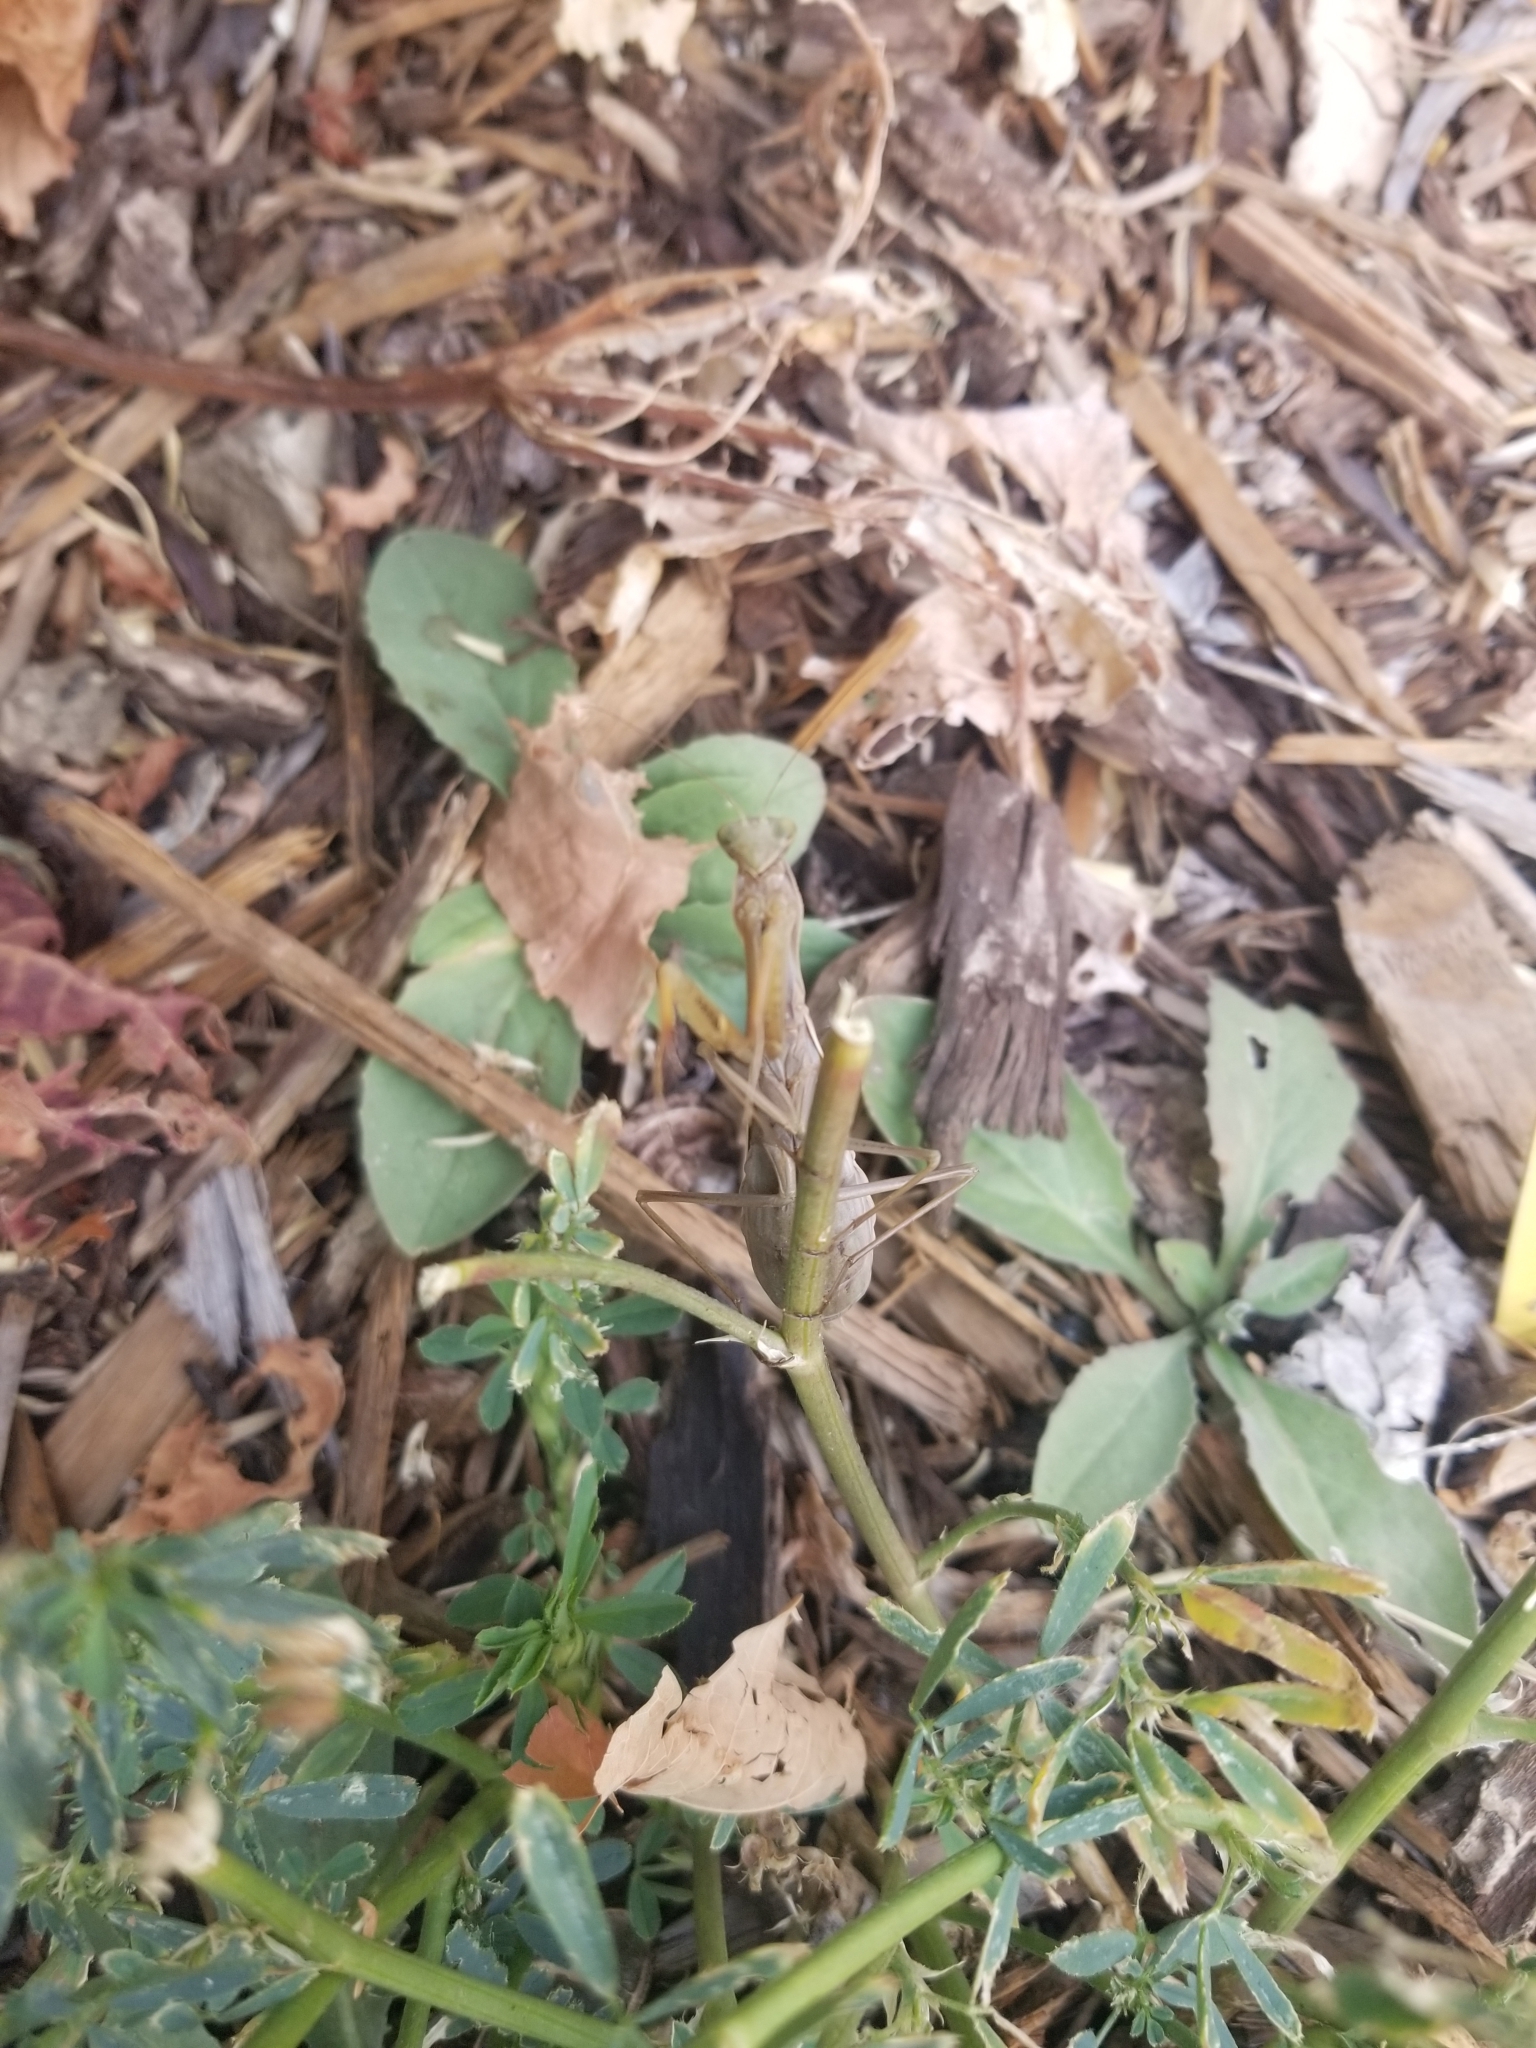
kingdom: Animalia
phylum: Arthropoda
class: Insecta
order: Mantodea
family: Mantidae
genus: Mantis
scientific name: Mantis religiosa
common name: Praying mantis
